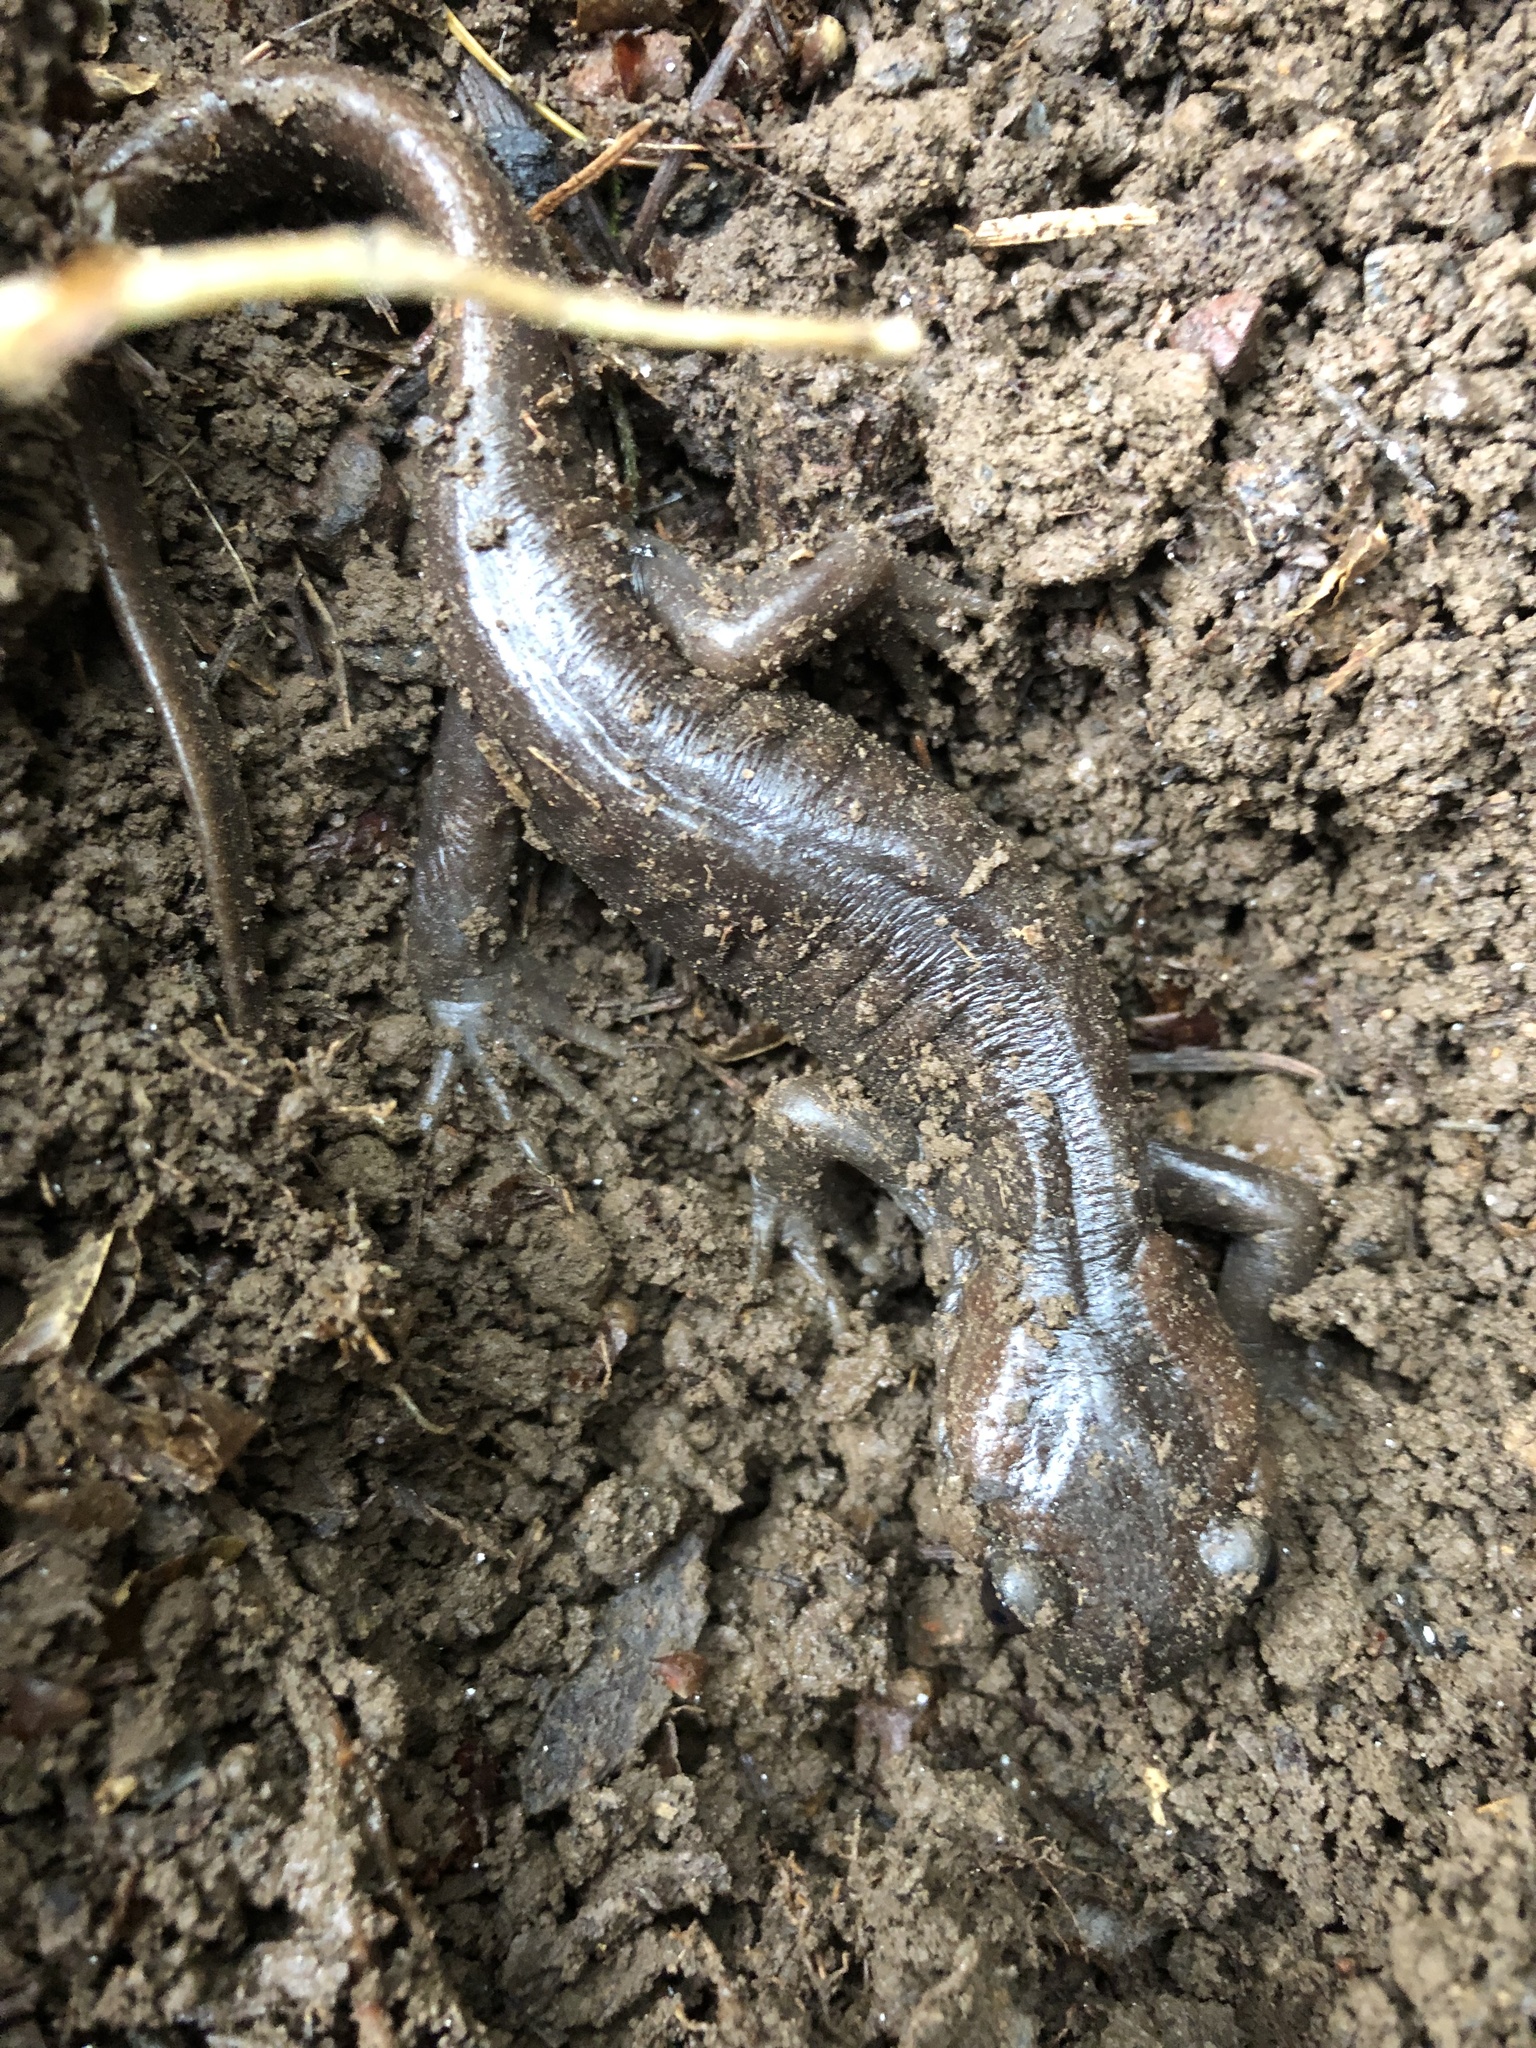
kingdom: Animalia
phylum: Chordata
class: Amphibia
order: Caudata
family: Ambystomatidae
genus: Ambystoma
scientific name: Ambystoma gracile
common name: Northwestern salamander
